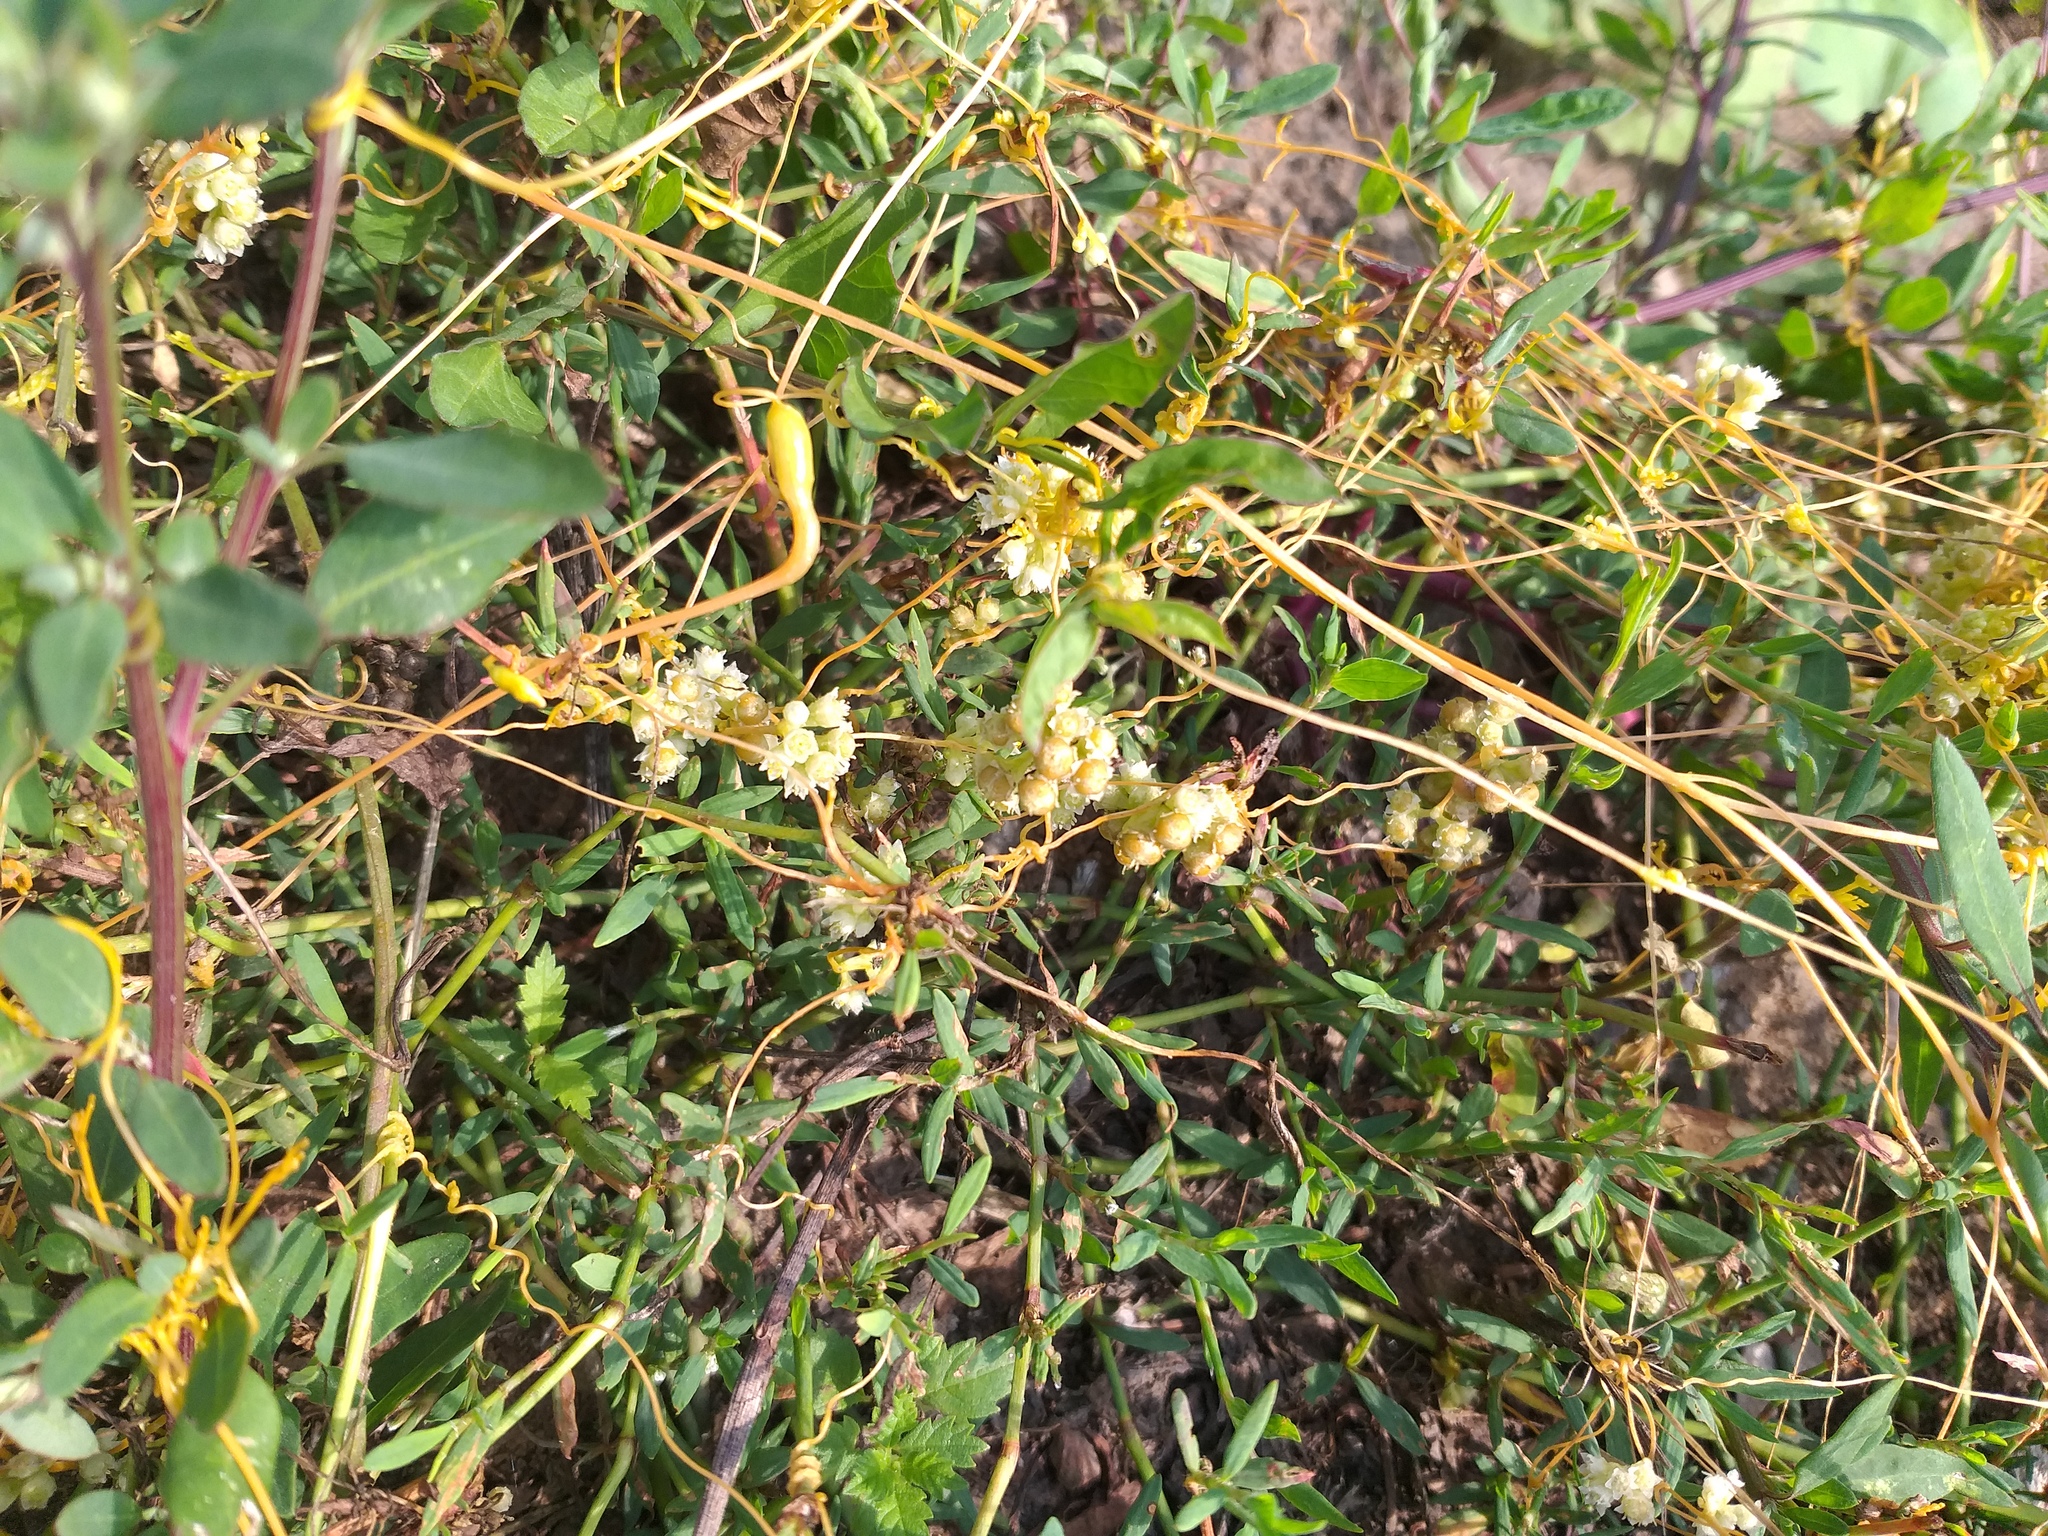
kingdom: Plantae
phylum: Tracheophyta
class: Magnoliopsida
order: Solanales
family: Convolvulaceae
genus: Cuscuta
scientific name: Cuscuta campestris
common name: Yellow dodder
